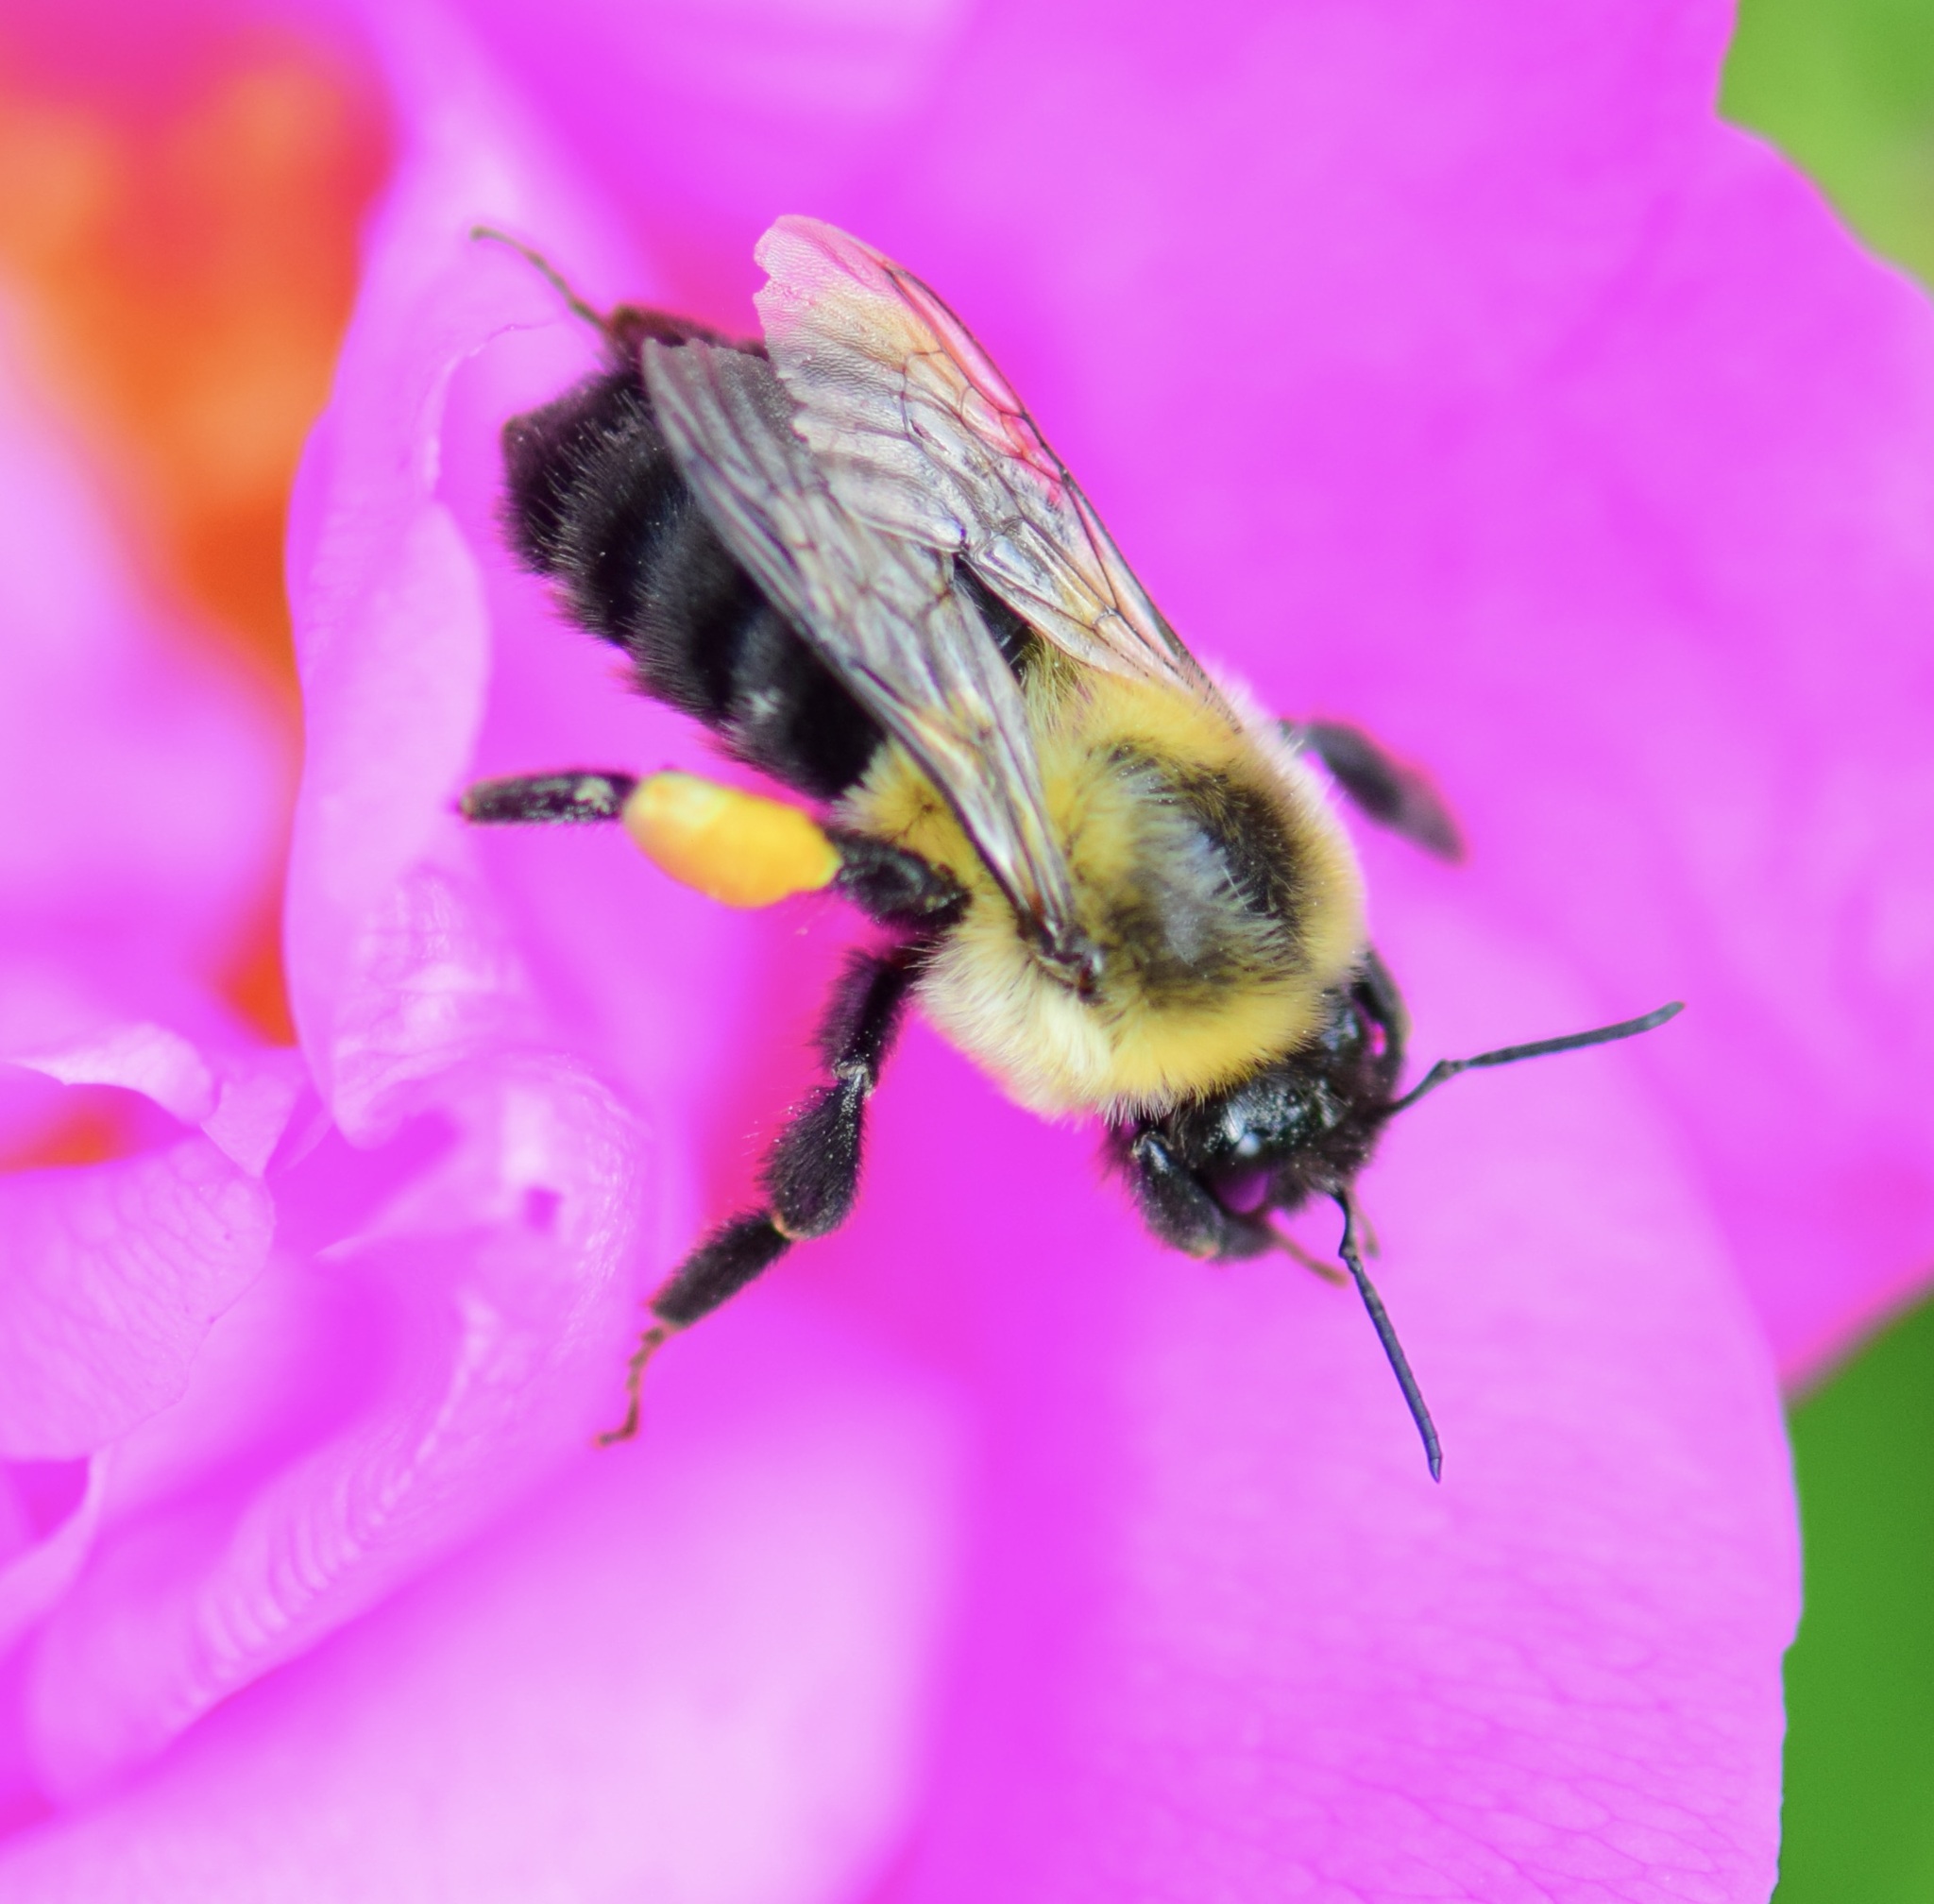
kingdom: Animalia
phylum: Arthropoda
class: Insecta
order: Hymenoptera
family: Apidae
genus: Bombus
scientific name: Bombus impatiens
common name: Common eastern bumble bee
